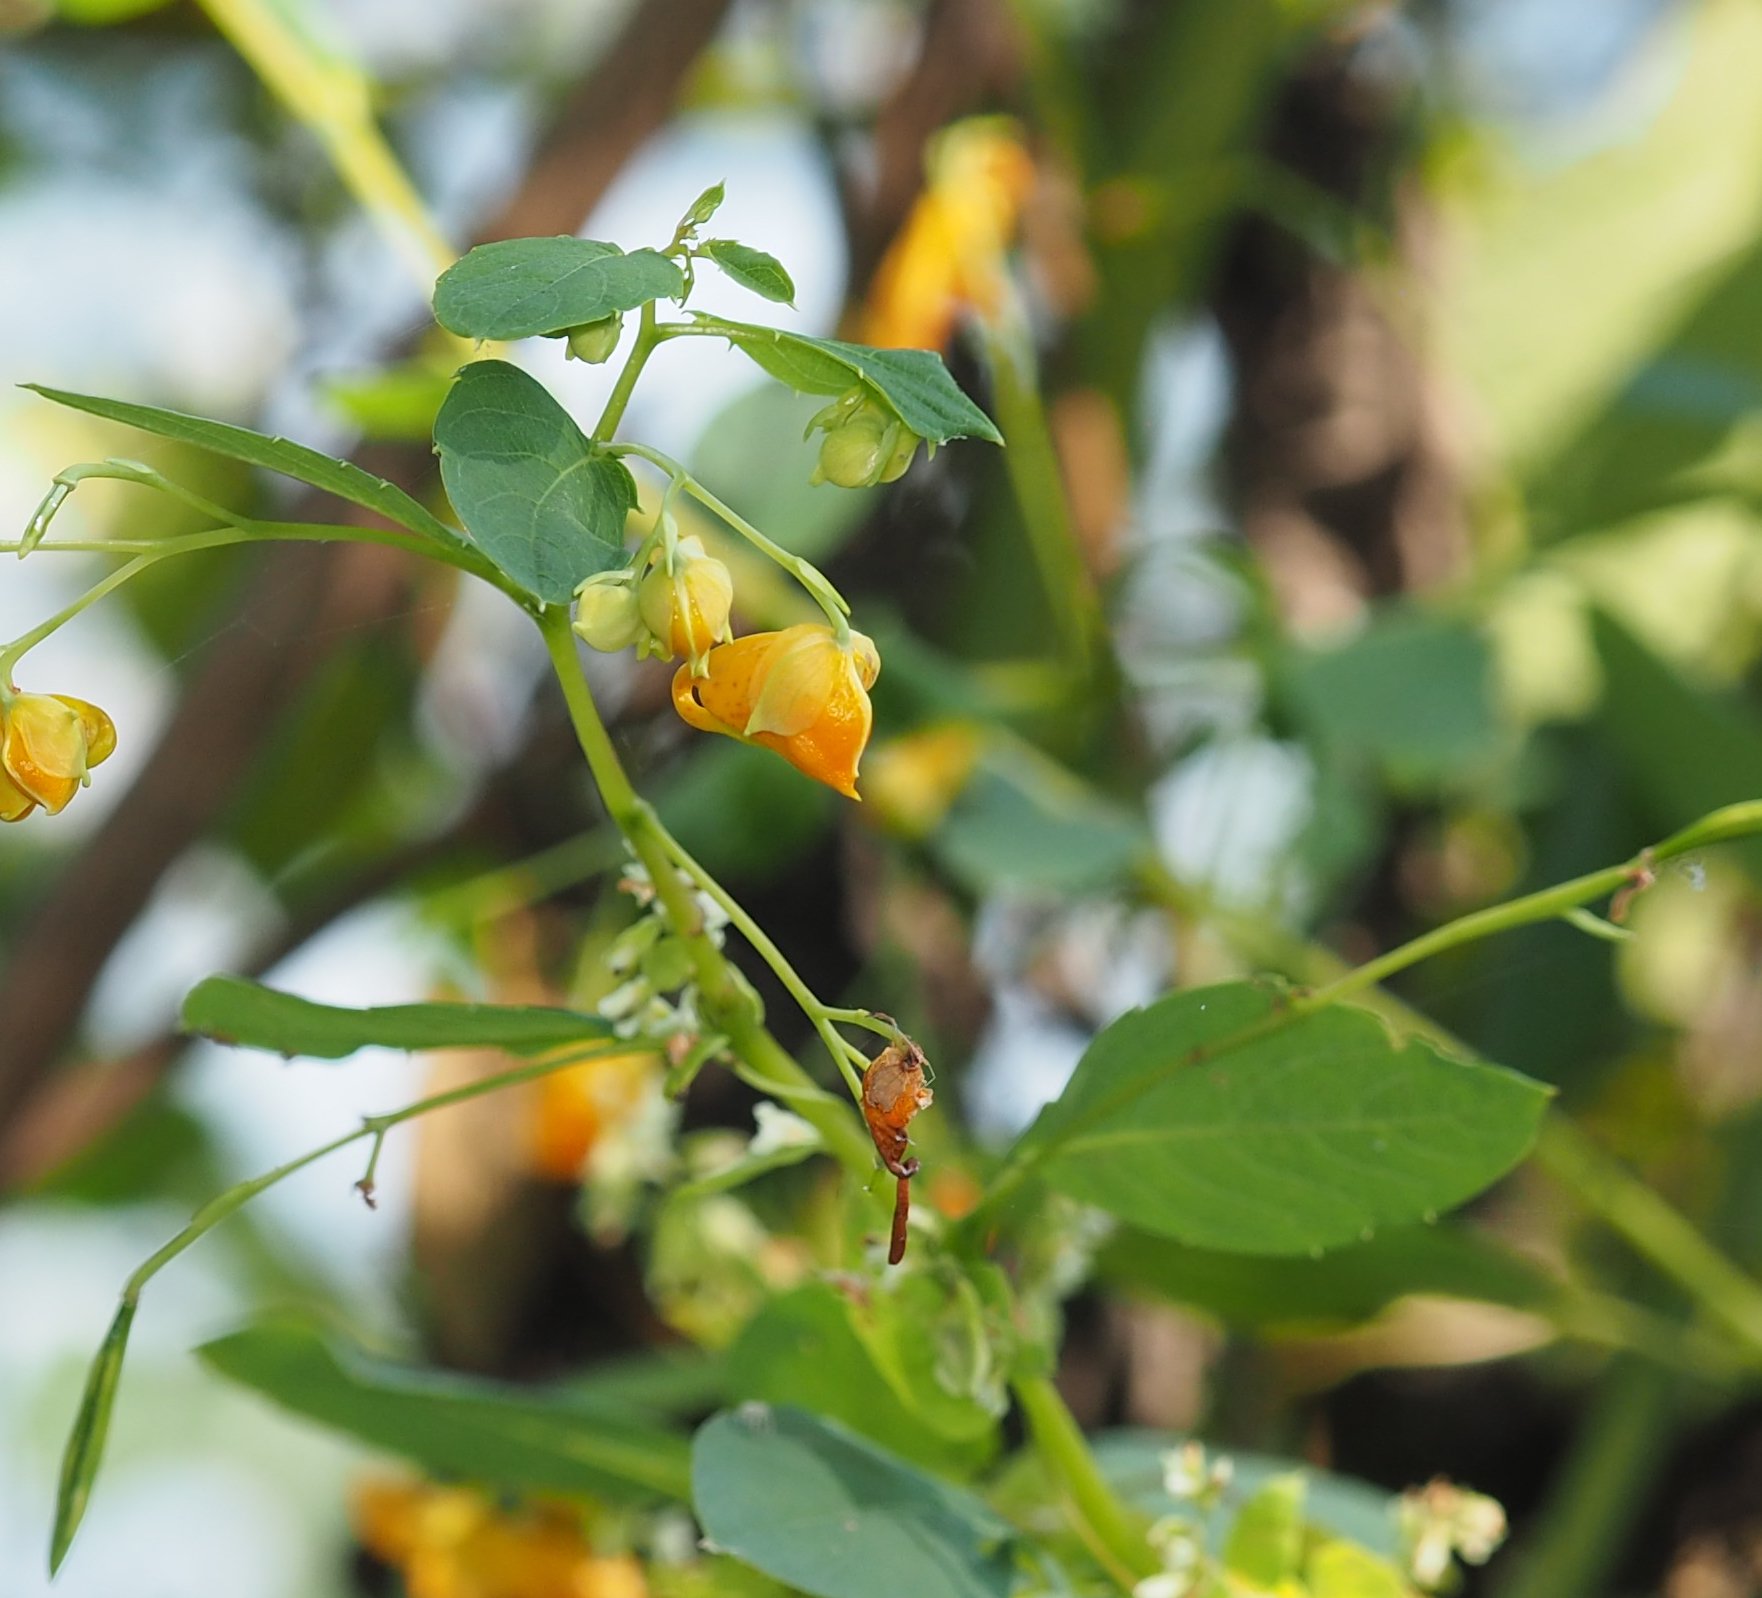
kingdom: Plantae
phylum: Tracheophyta
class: Magnoliopsida
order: Ericales
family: Balsaminaceae
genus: Impatiens
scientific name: Impatiens capensis
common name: Orange balsam
